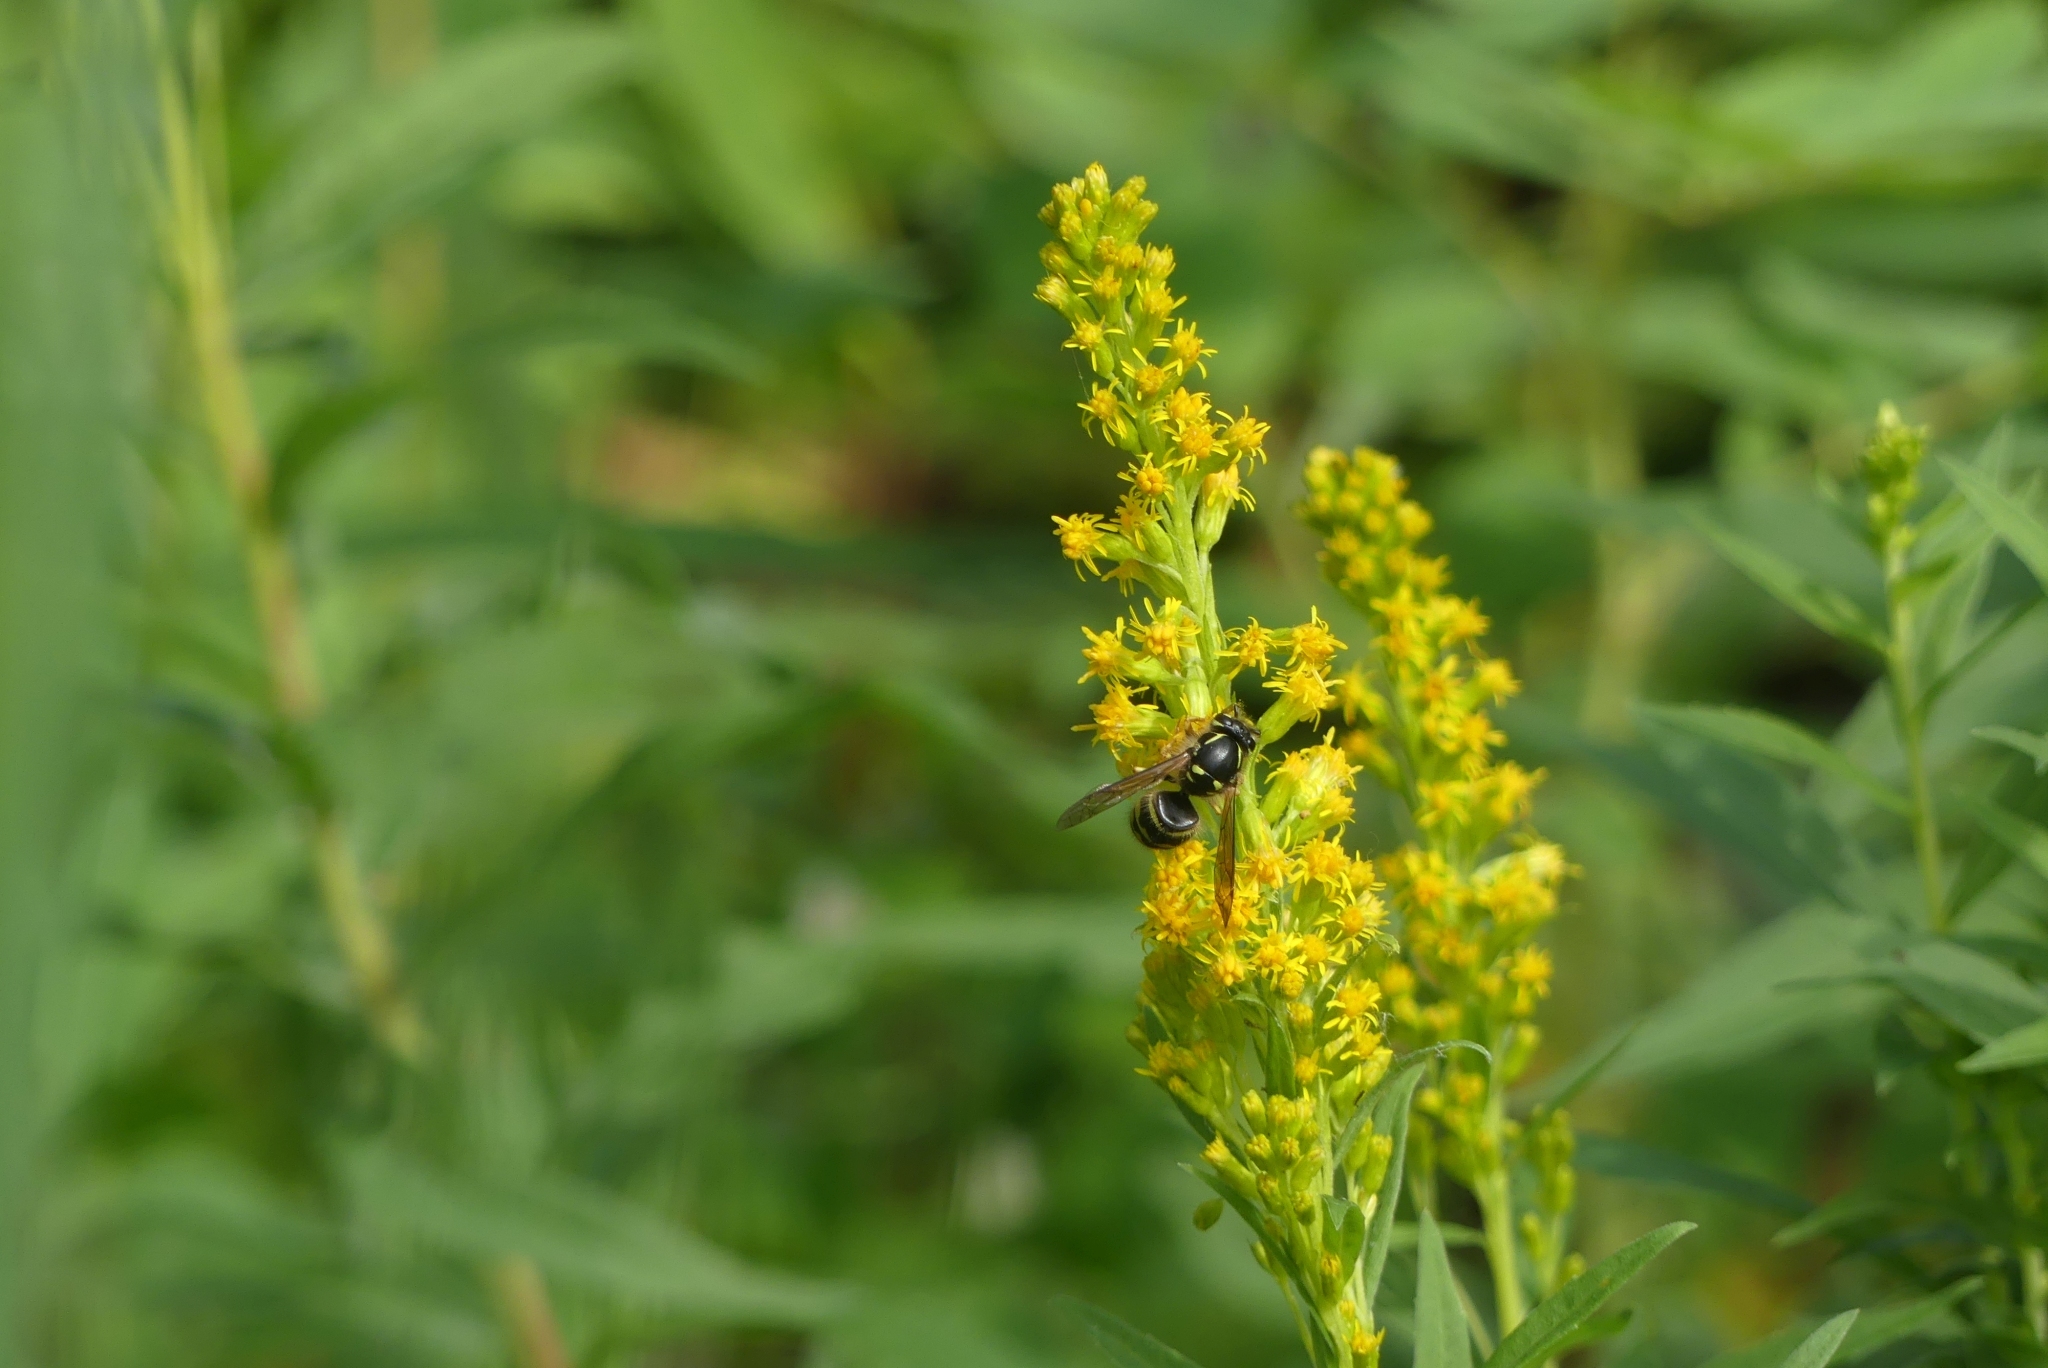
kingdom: Animalia
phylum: Arthropoda
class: Insecta
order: Hymenoptera
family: Vespidae
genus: Dolichovespula
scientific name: Dolichovespula arenaria
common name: Aerial yellowjacket
